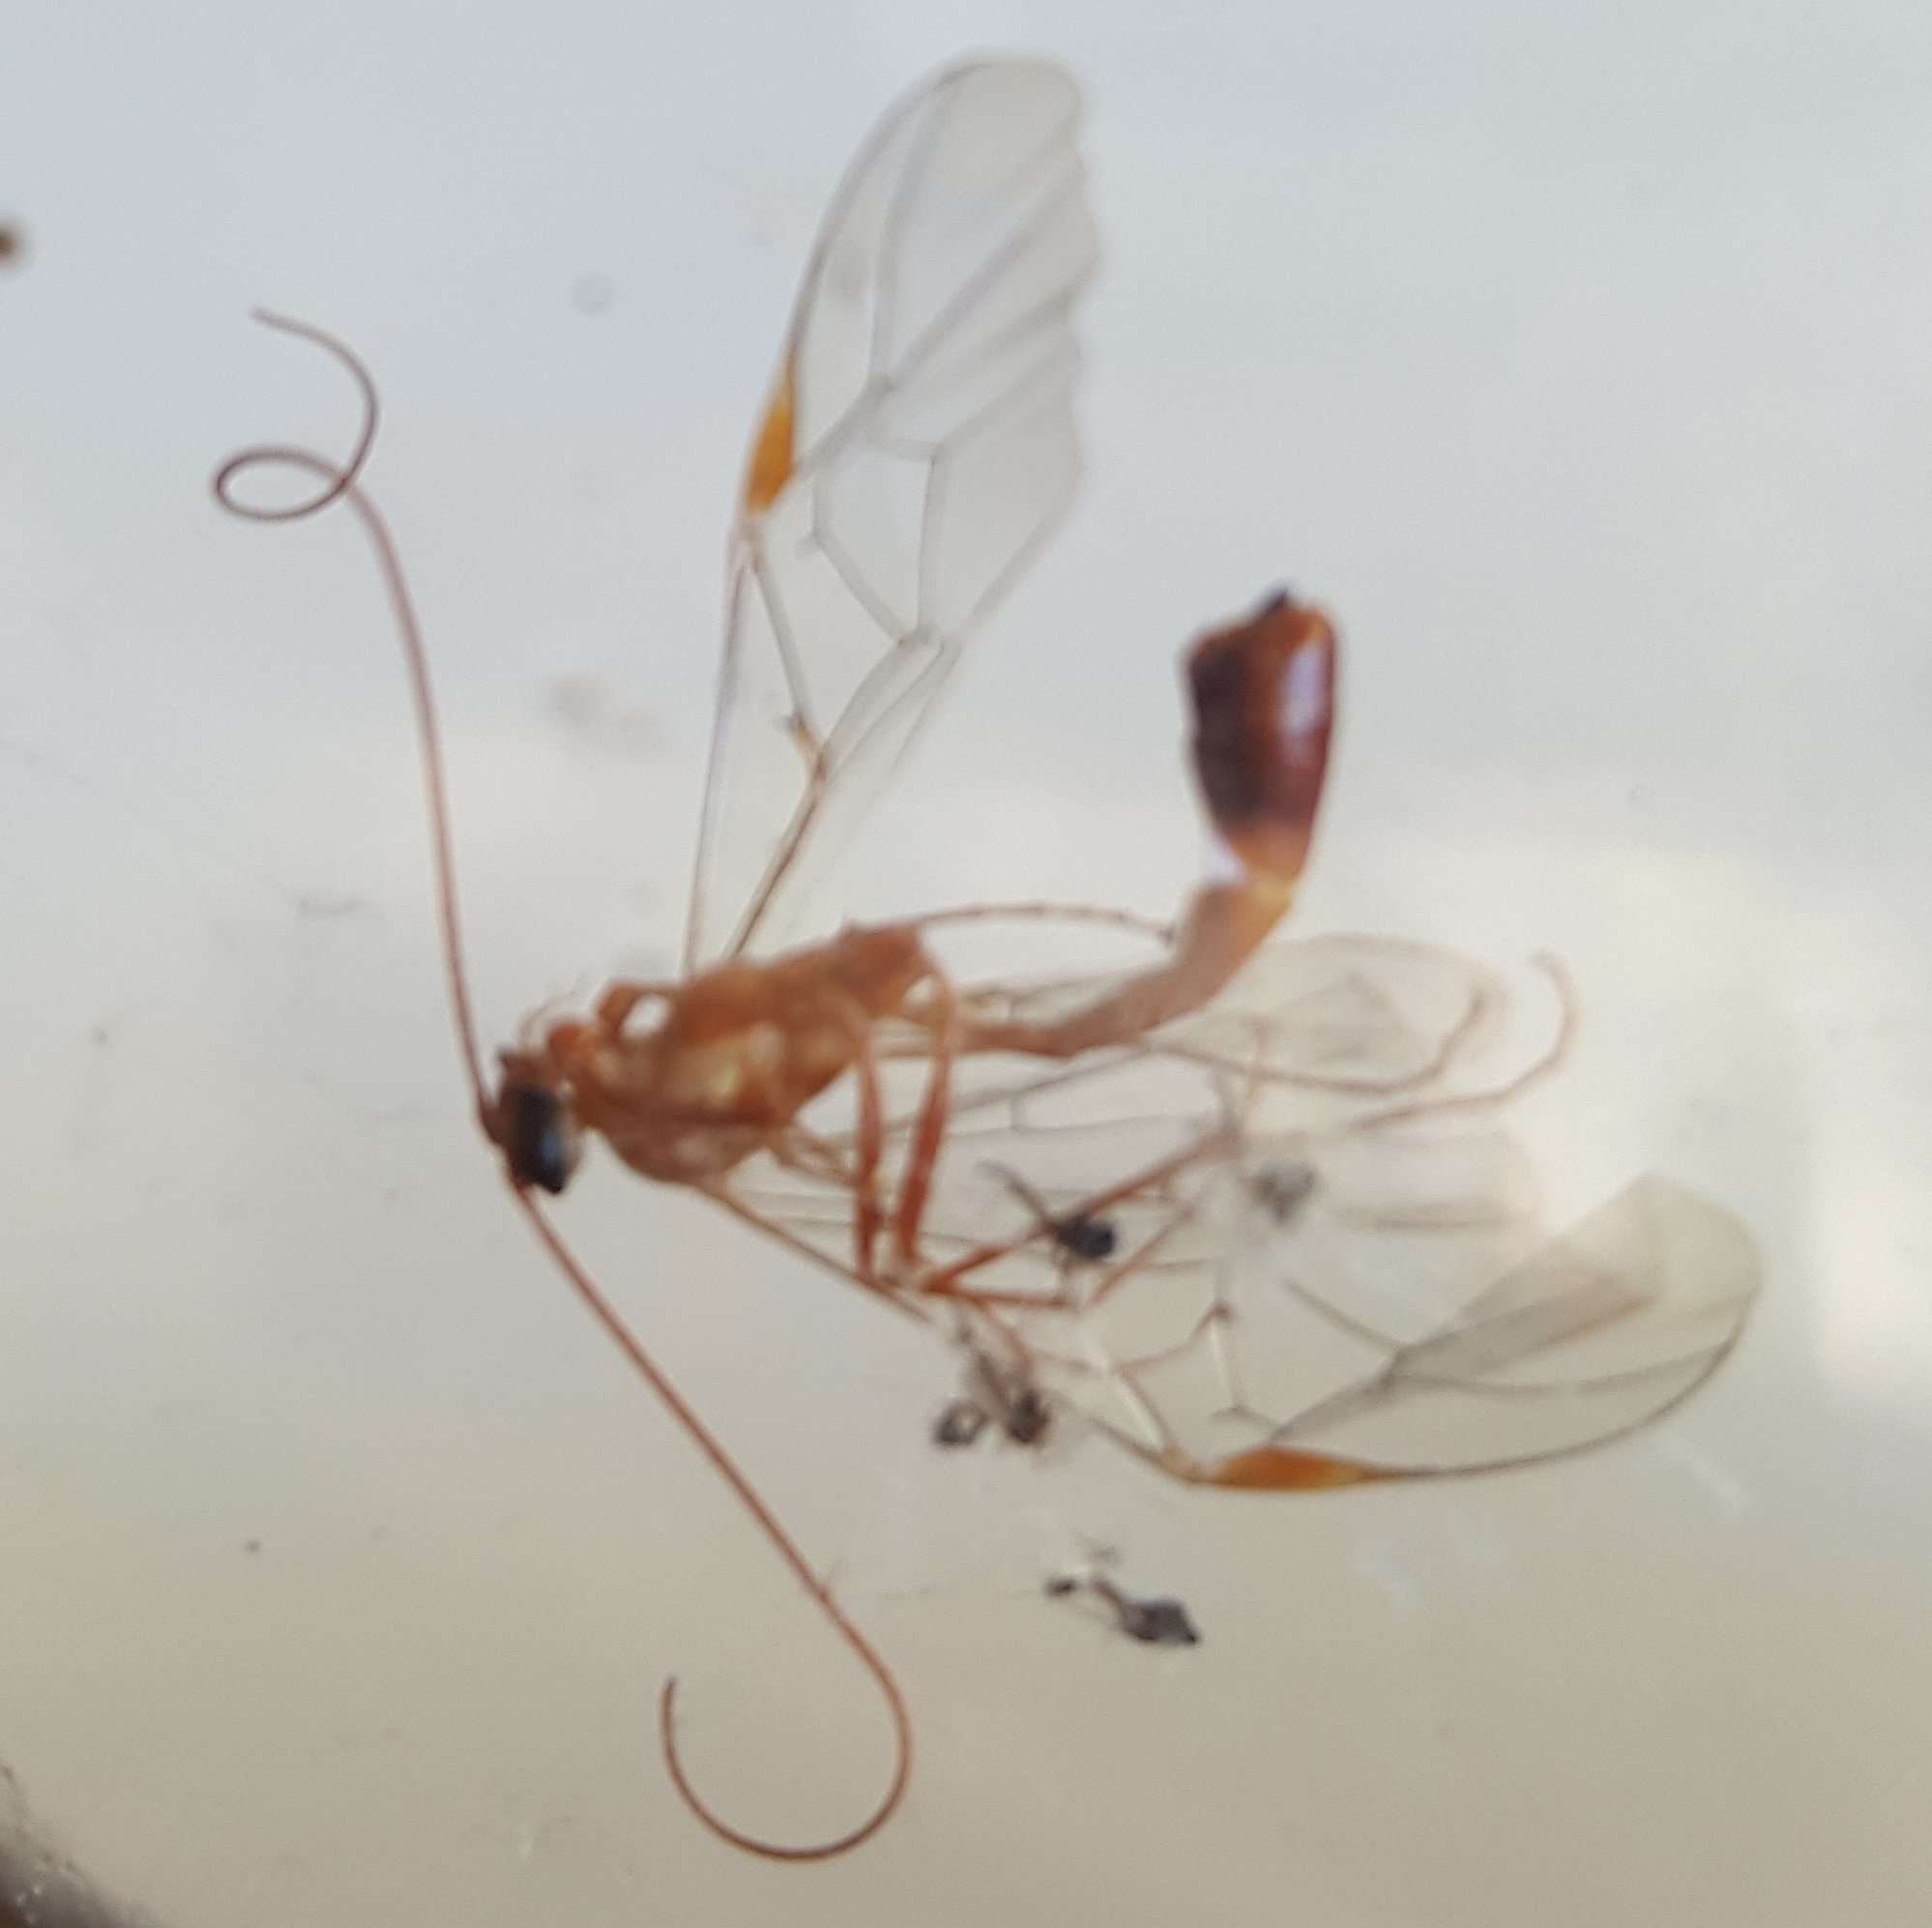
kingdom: Animalia
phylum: Arthropoda
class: Insecta
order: Hymenoptera
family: Ichneumonidae
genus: Ophion
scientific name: Ophion
